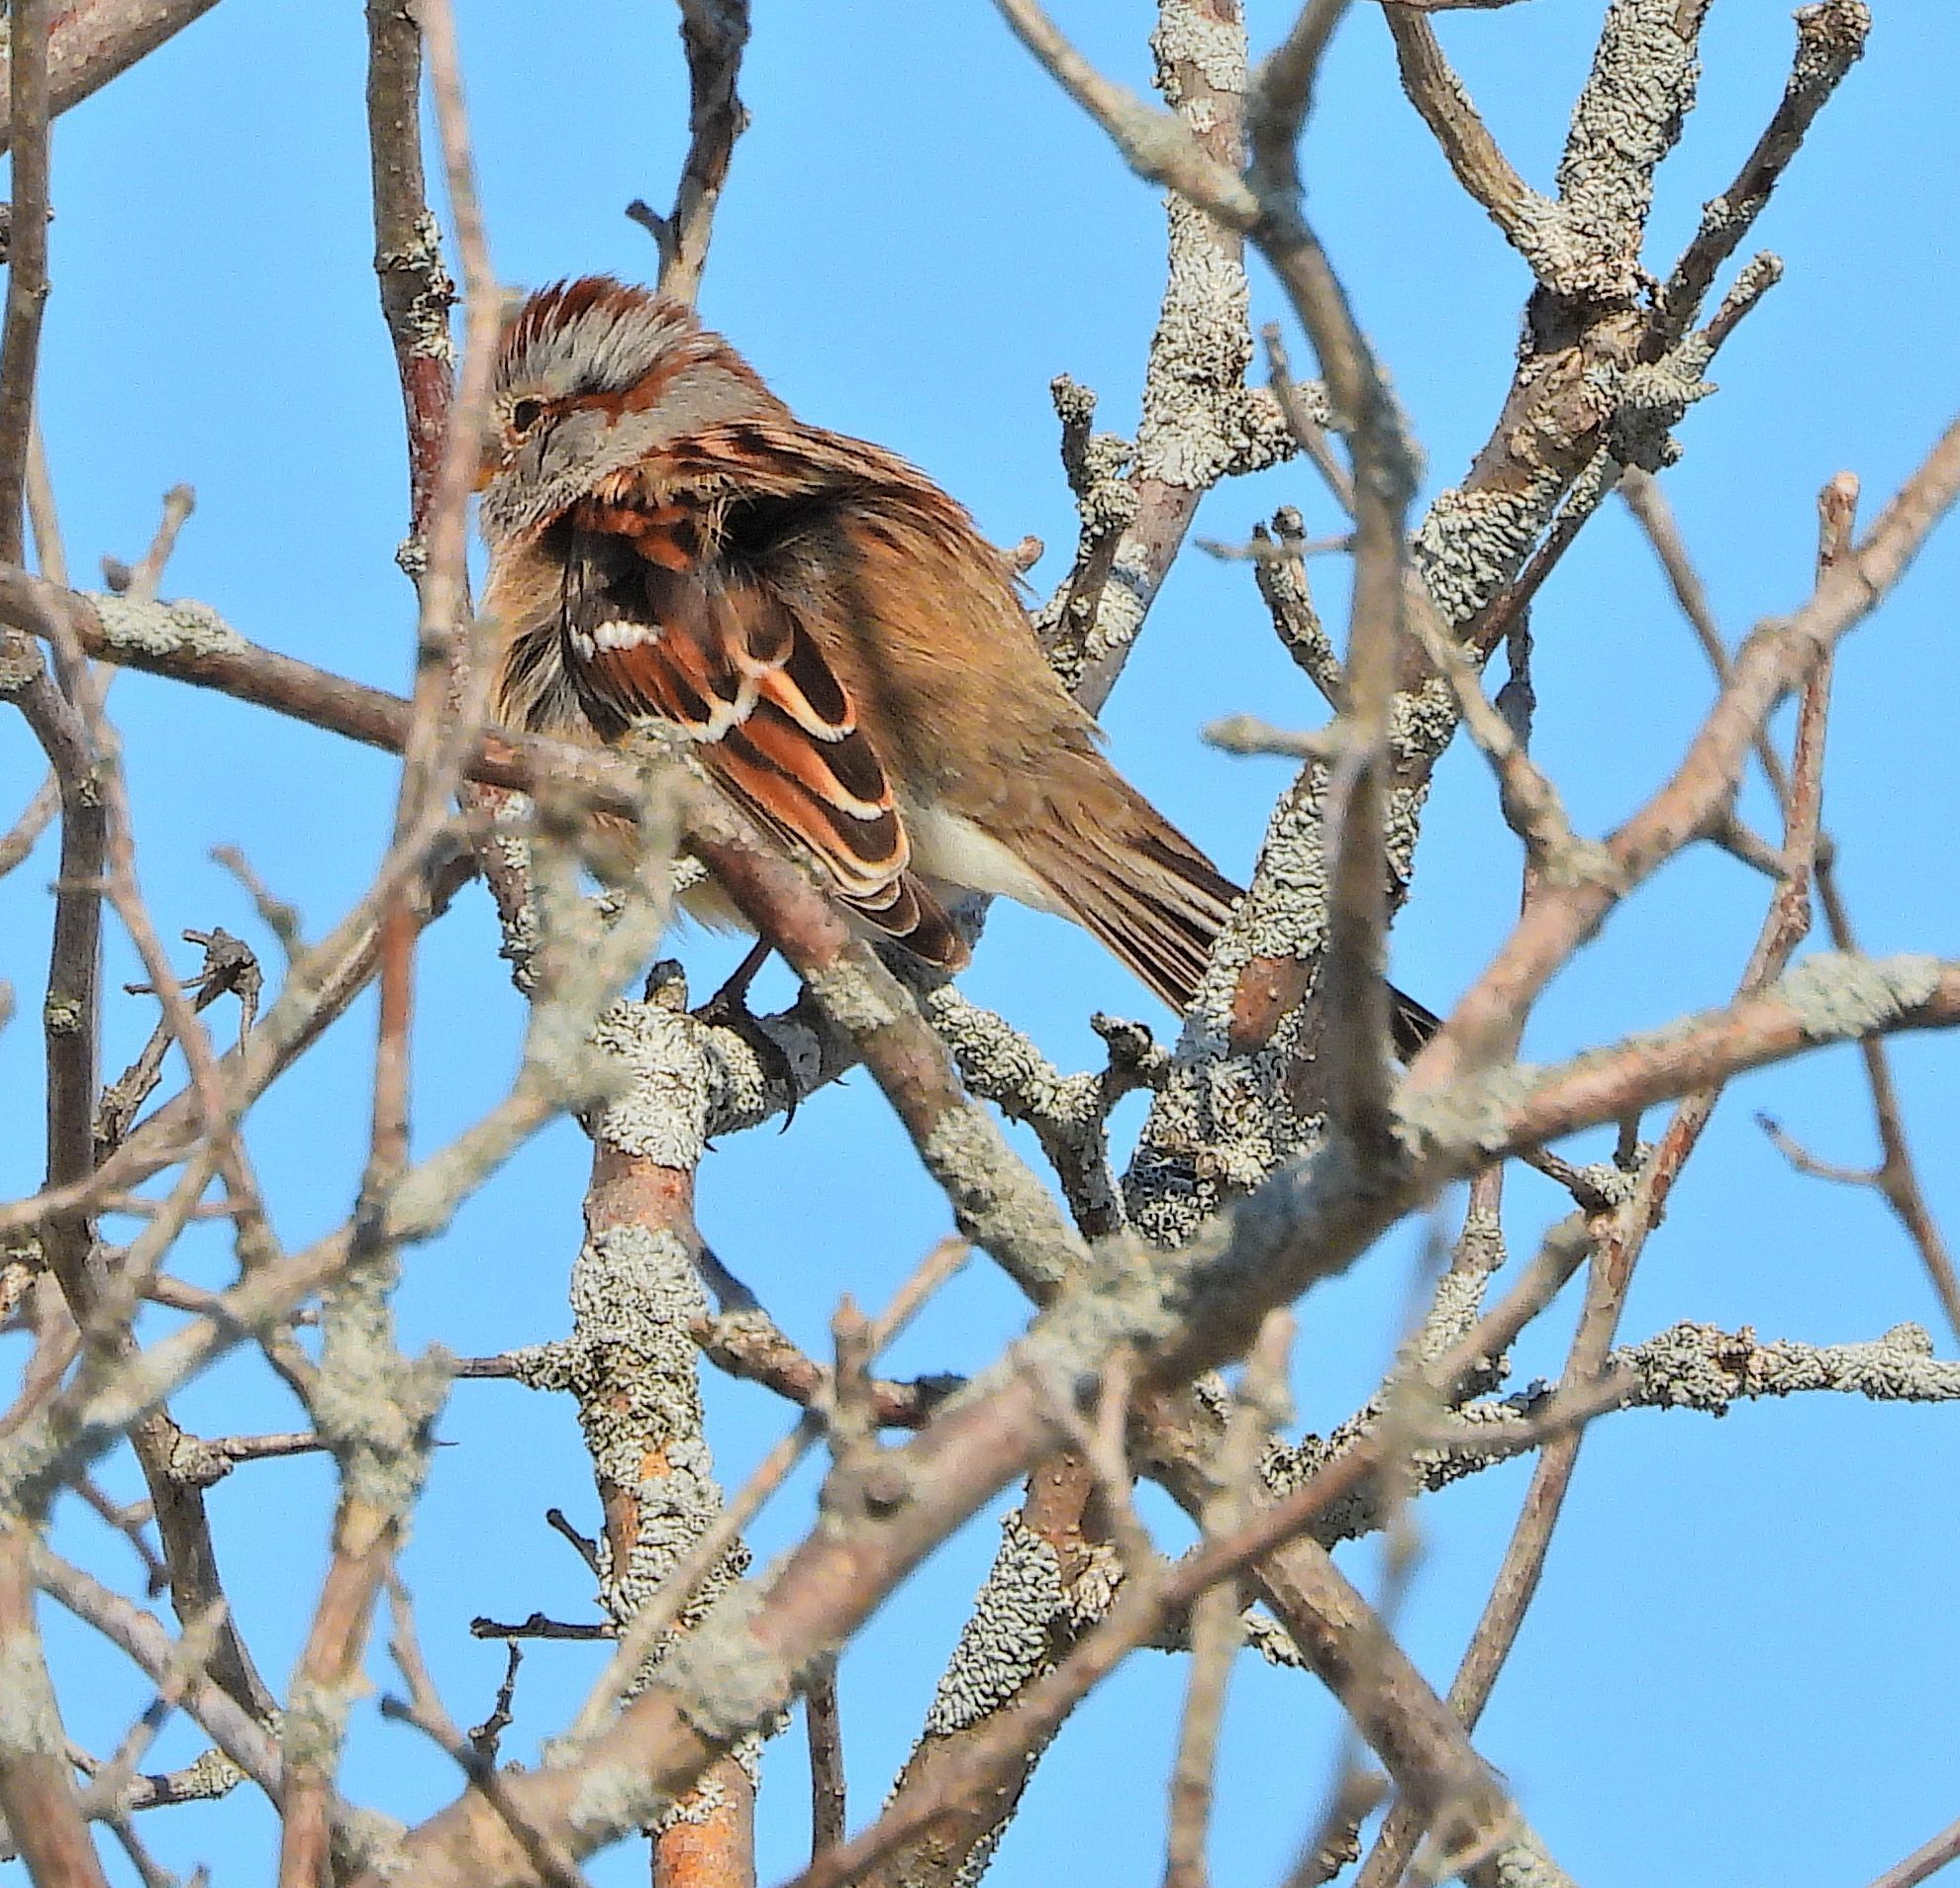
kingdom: Animalia
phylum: Chordata
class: Aves
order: Passeriformes
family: Passerellidae
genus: Spizelloides
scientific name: Spizelloides arborea
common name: American tree sparrow
